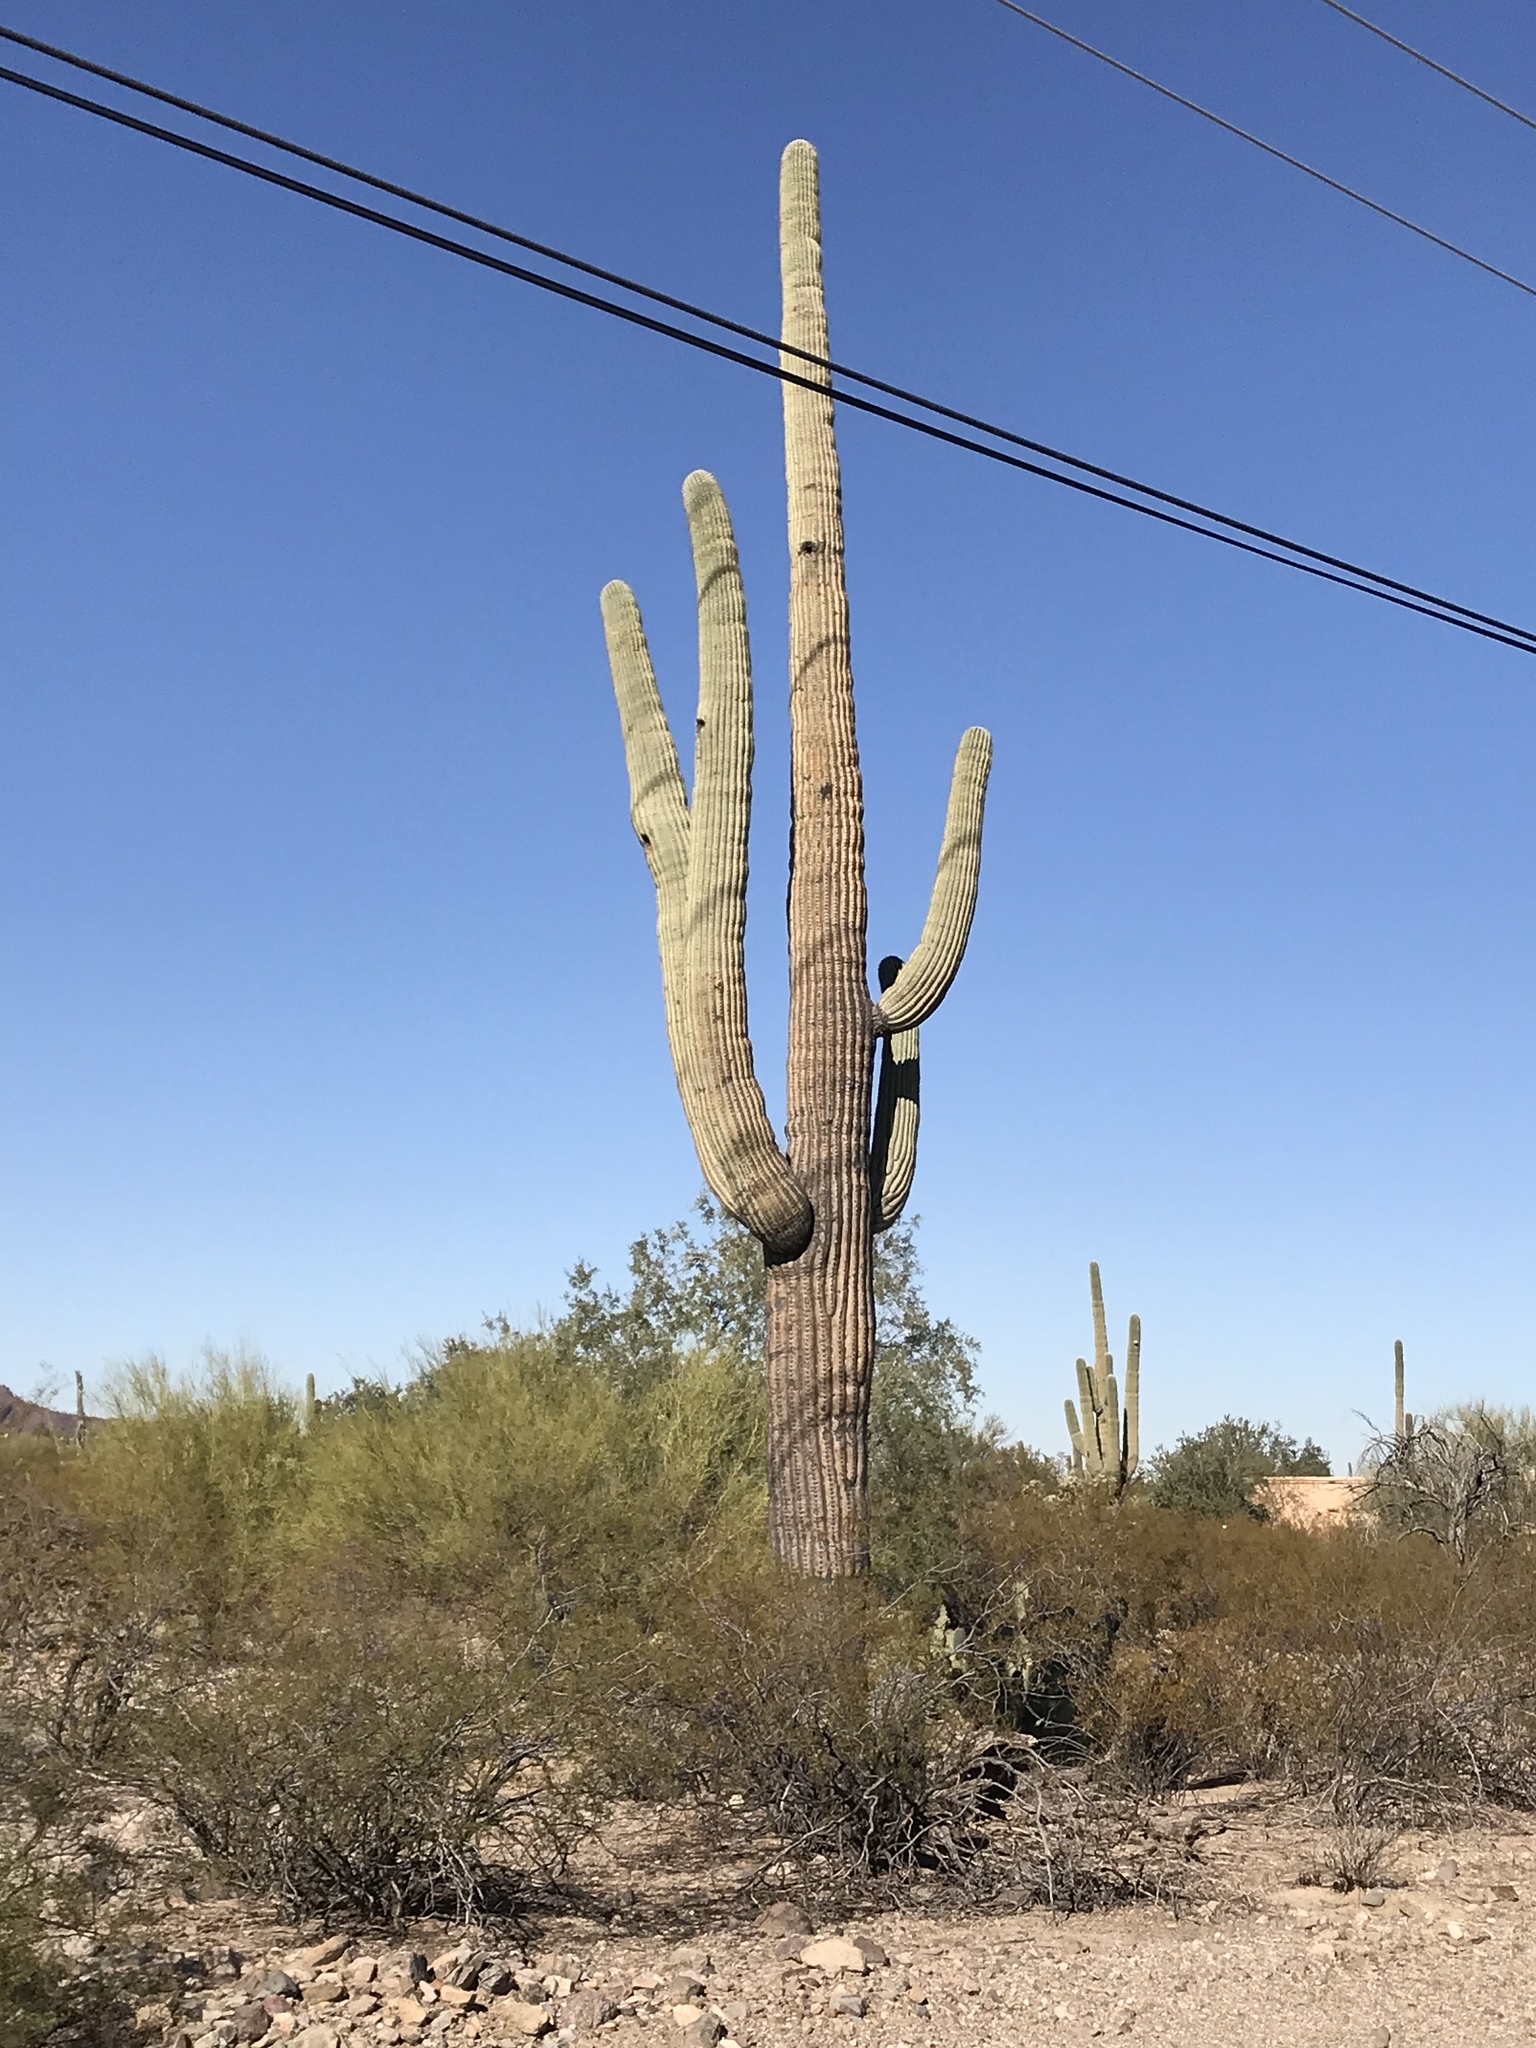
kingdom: Plantae
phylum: Tracheophyta
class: Magnoliopsida
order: Caryophyllales
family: Cactaceae
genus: Carnegiea
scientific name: Carnegiea gigantea
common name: Saguaro
